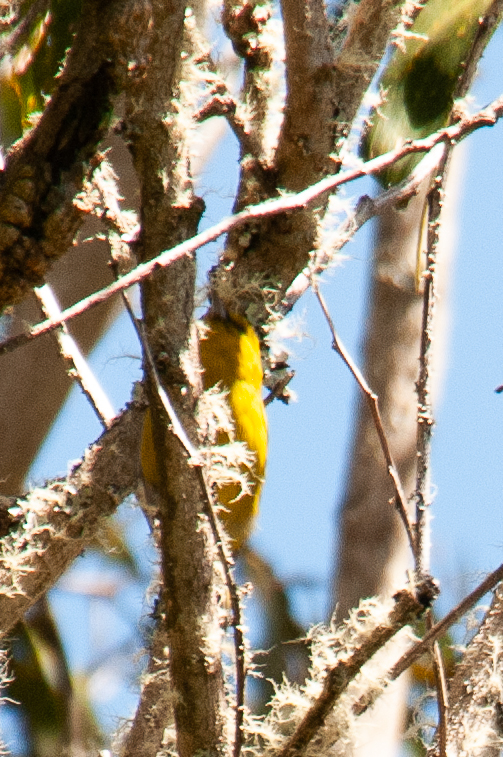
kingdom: Animalia
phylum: Chordata
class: Aves
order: Passeriformes
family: Fringillidae
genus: Chlorodrepanis
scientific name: Chlorodrepanis virens
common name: Hawaii amakihi
